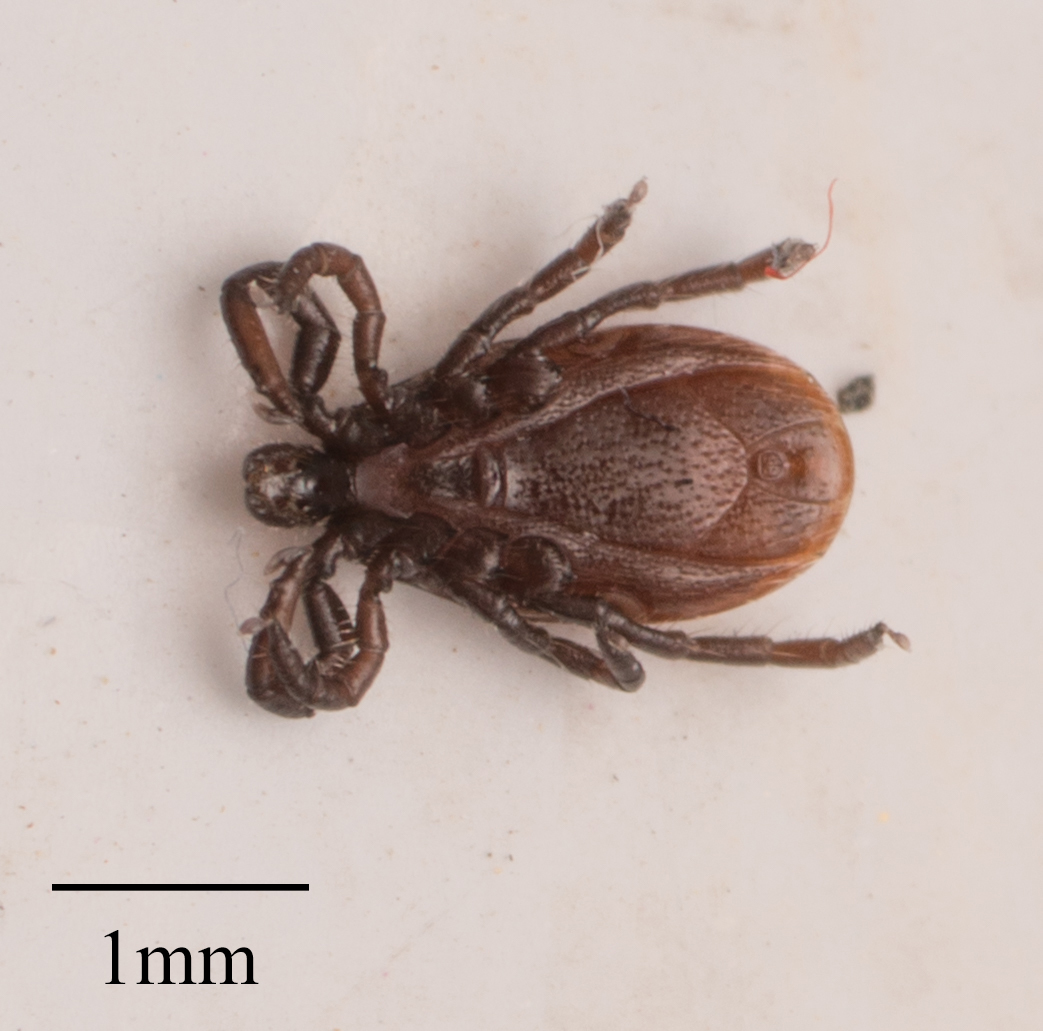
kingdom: Animalia
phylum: Arthropoda
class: Arachnida
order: Ixodida
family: Ixodidae
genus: Ixodes
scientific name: Ixodes pacificus
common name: California black-legged tick
